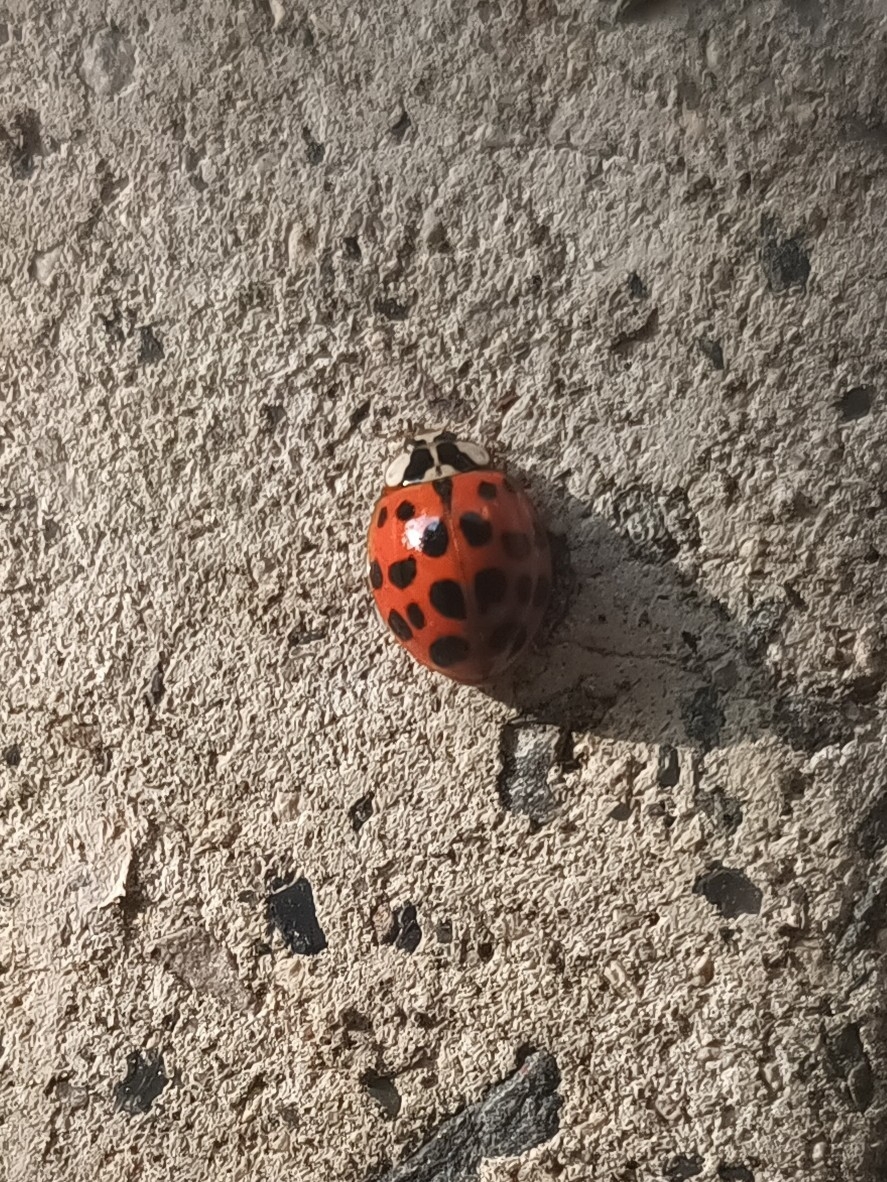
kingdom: Animalia
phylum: Arthropoda
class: Insecta
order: Coleoptera
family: Coccinellidae
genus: Harmonia
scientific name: Harmonia axyridis
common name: Harlequin ladybird
